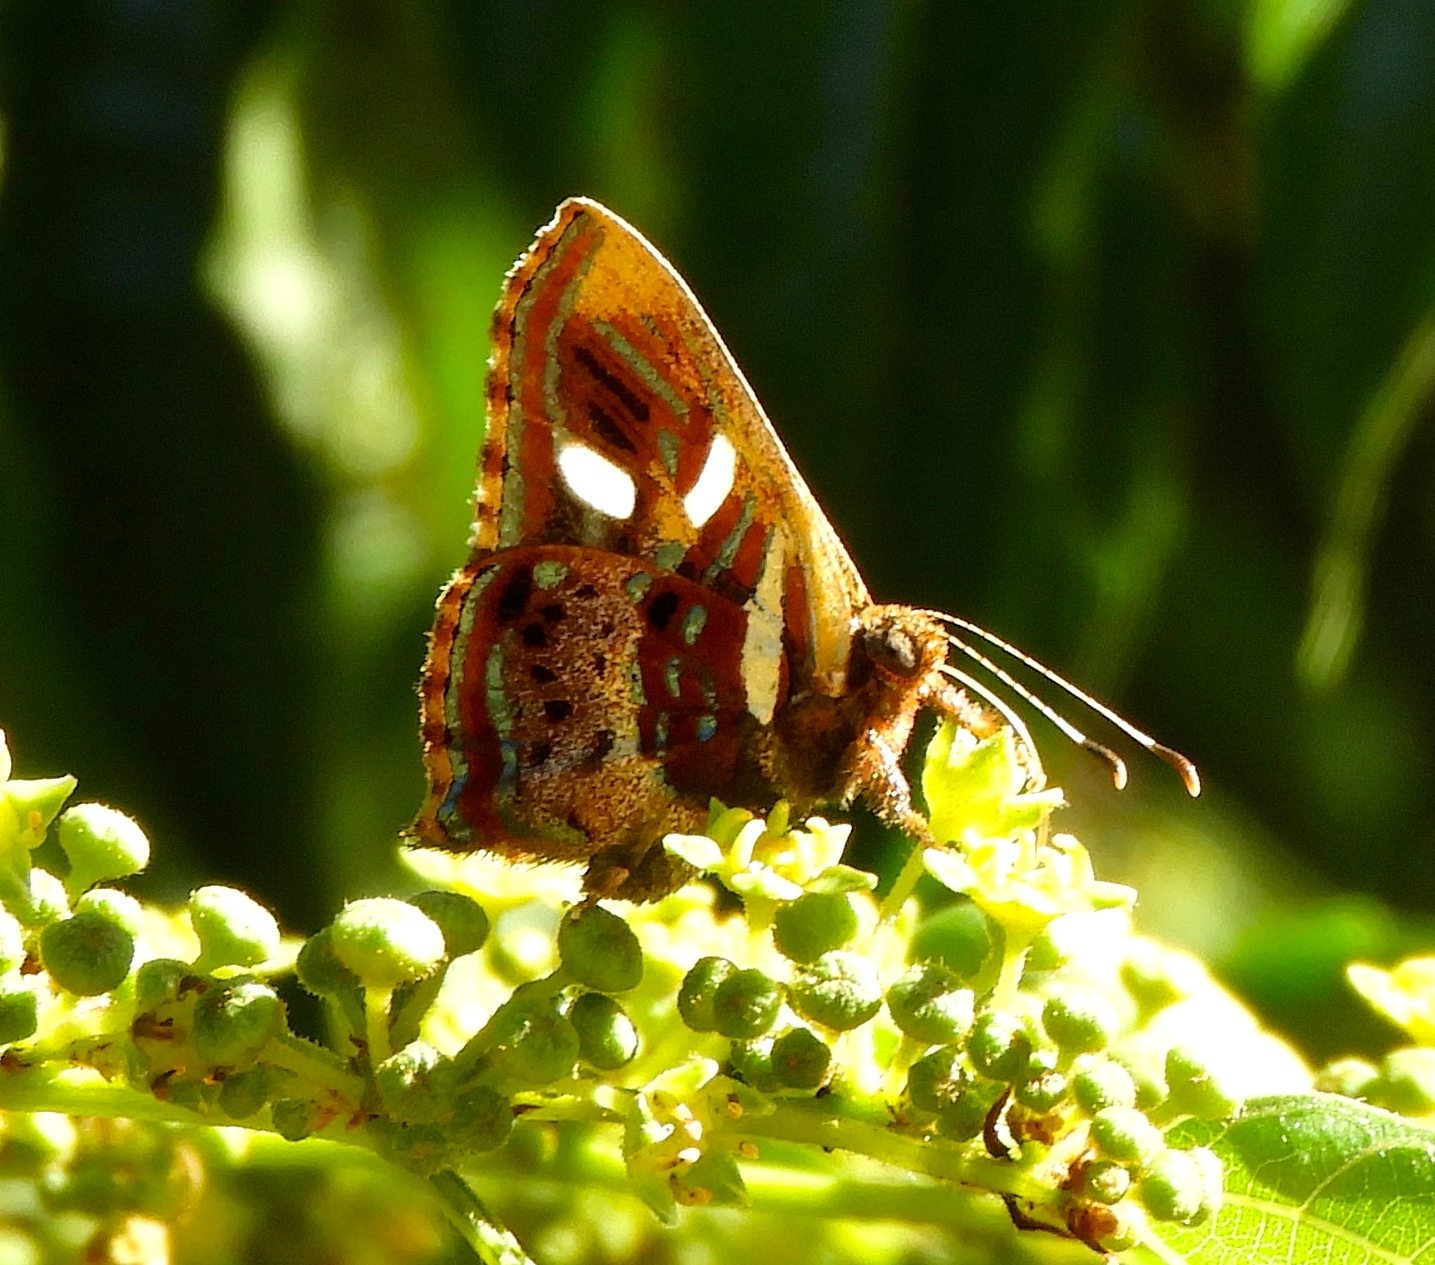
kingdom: Animalia
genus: Anteros
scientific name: Anteros carausius
